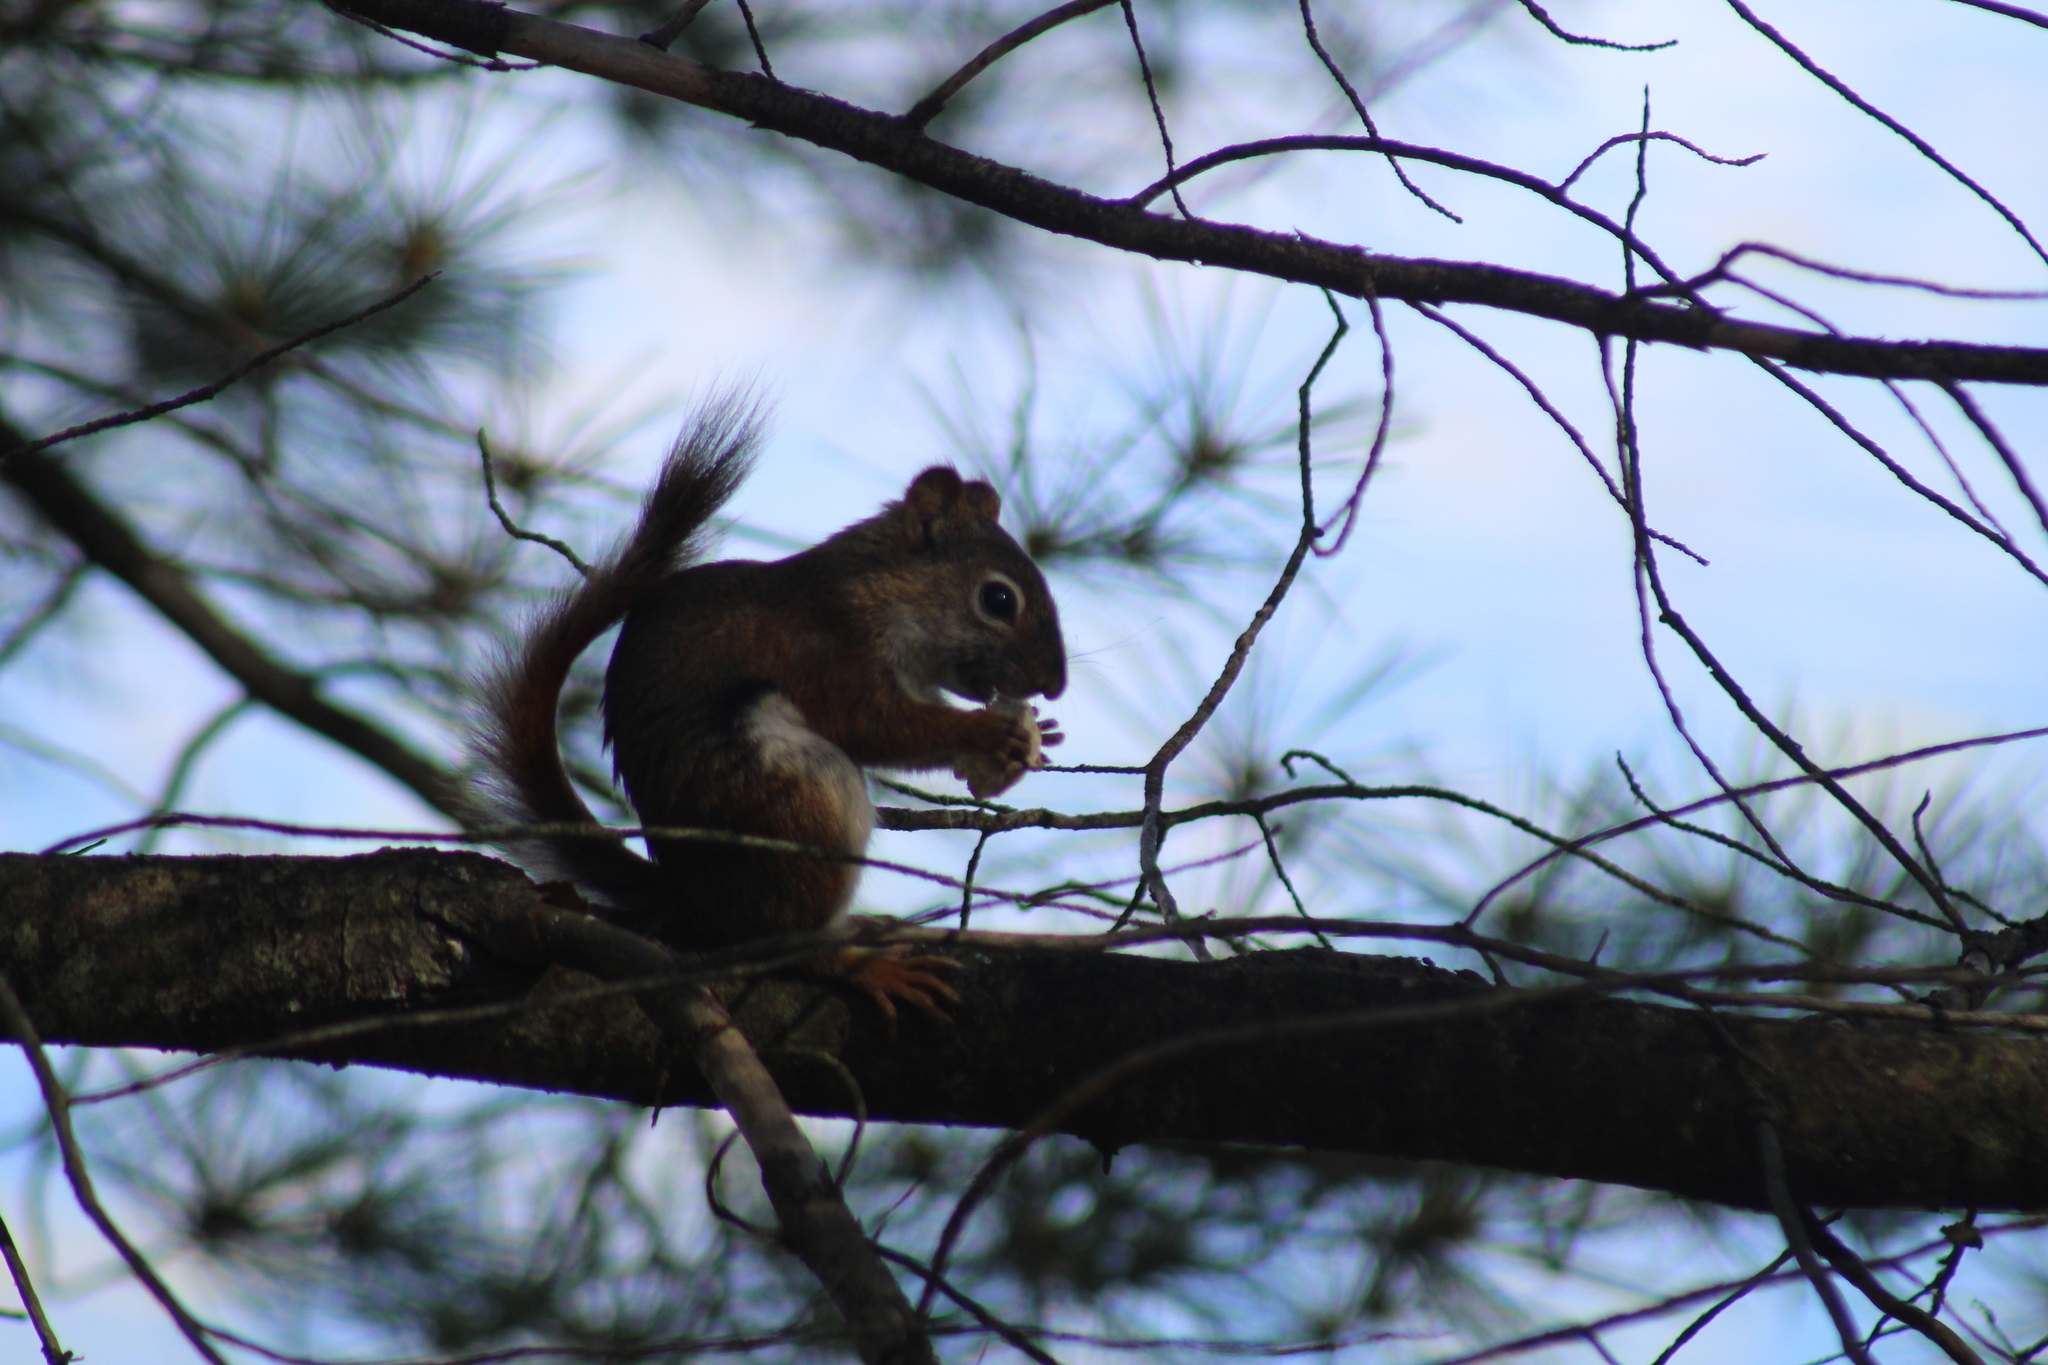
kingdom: Animalia
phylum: Chordata
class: Mammalia
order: Rodentia
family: Sciuridae
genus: Tamiasciurus
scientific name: Tamiasciurus hudsonicus
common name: Red squirrel
